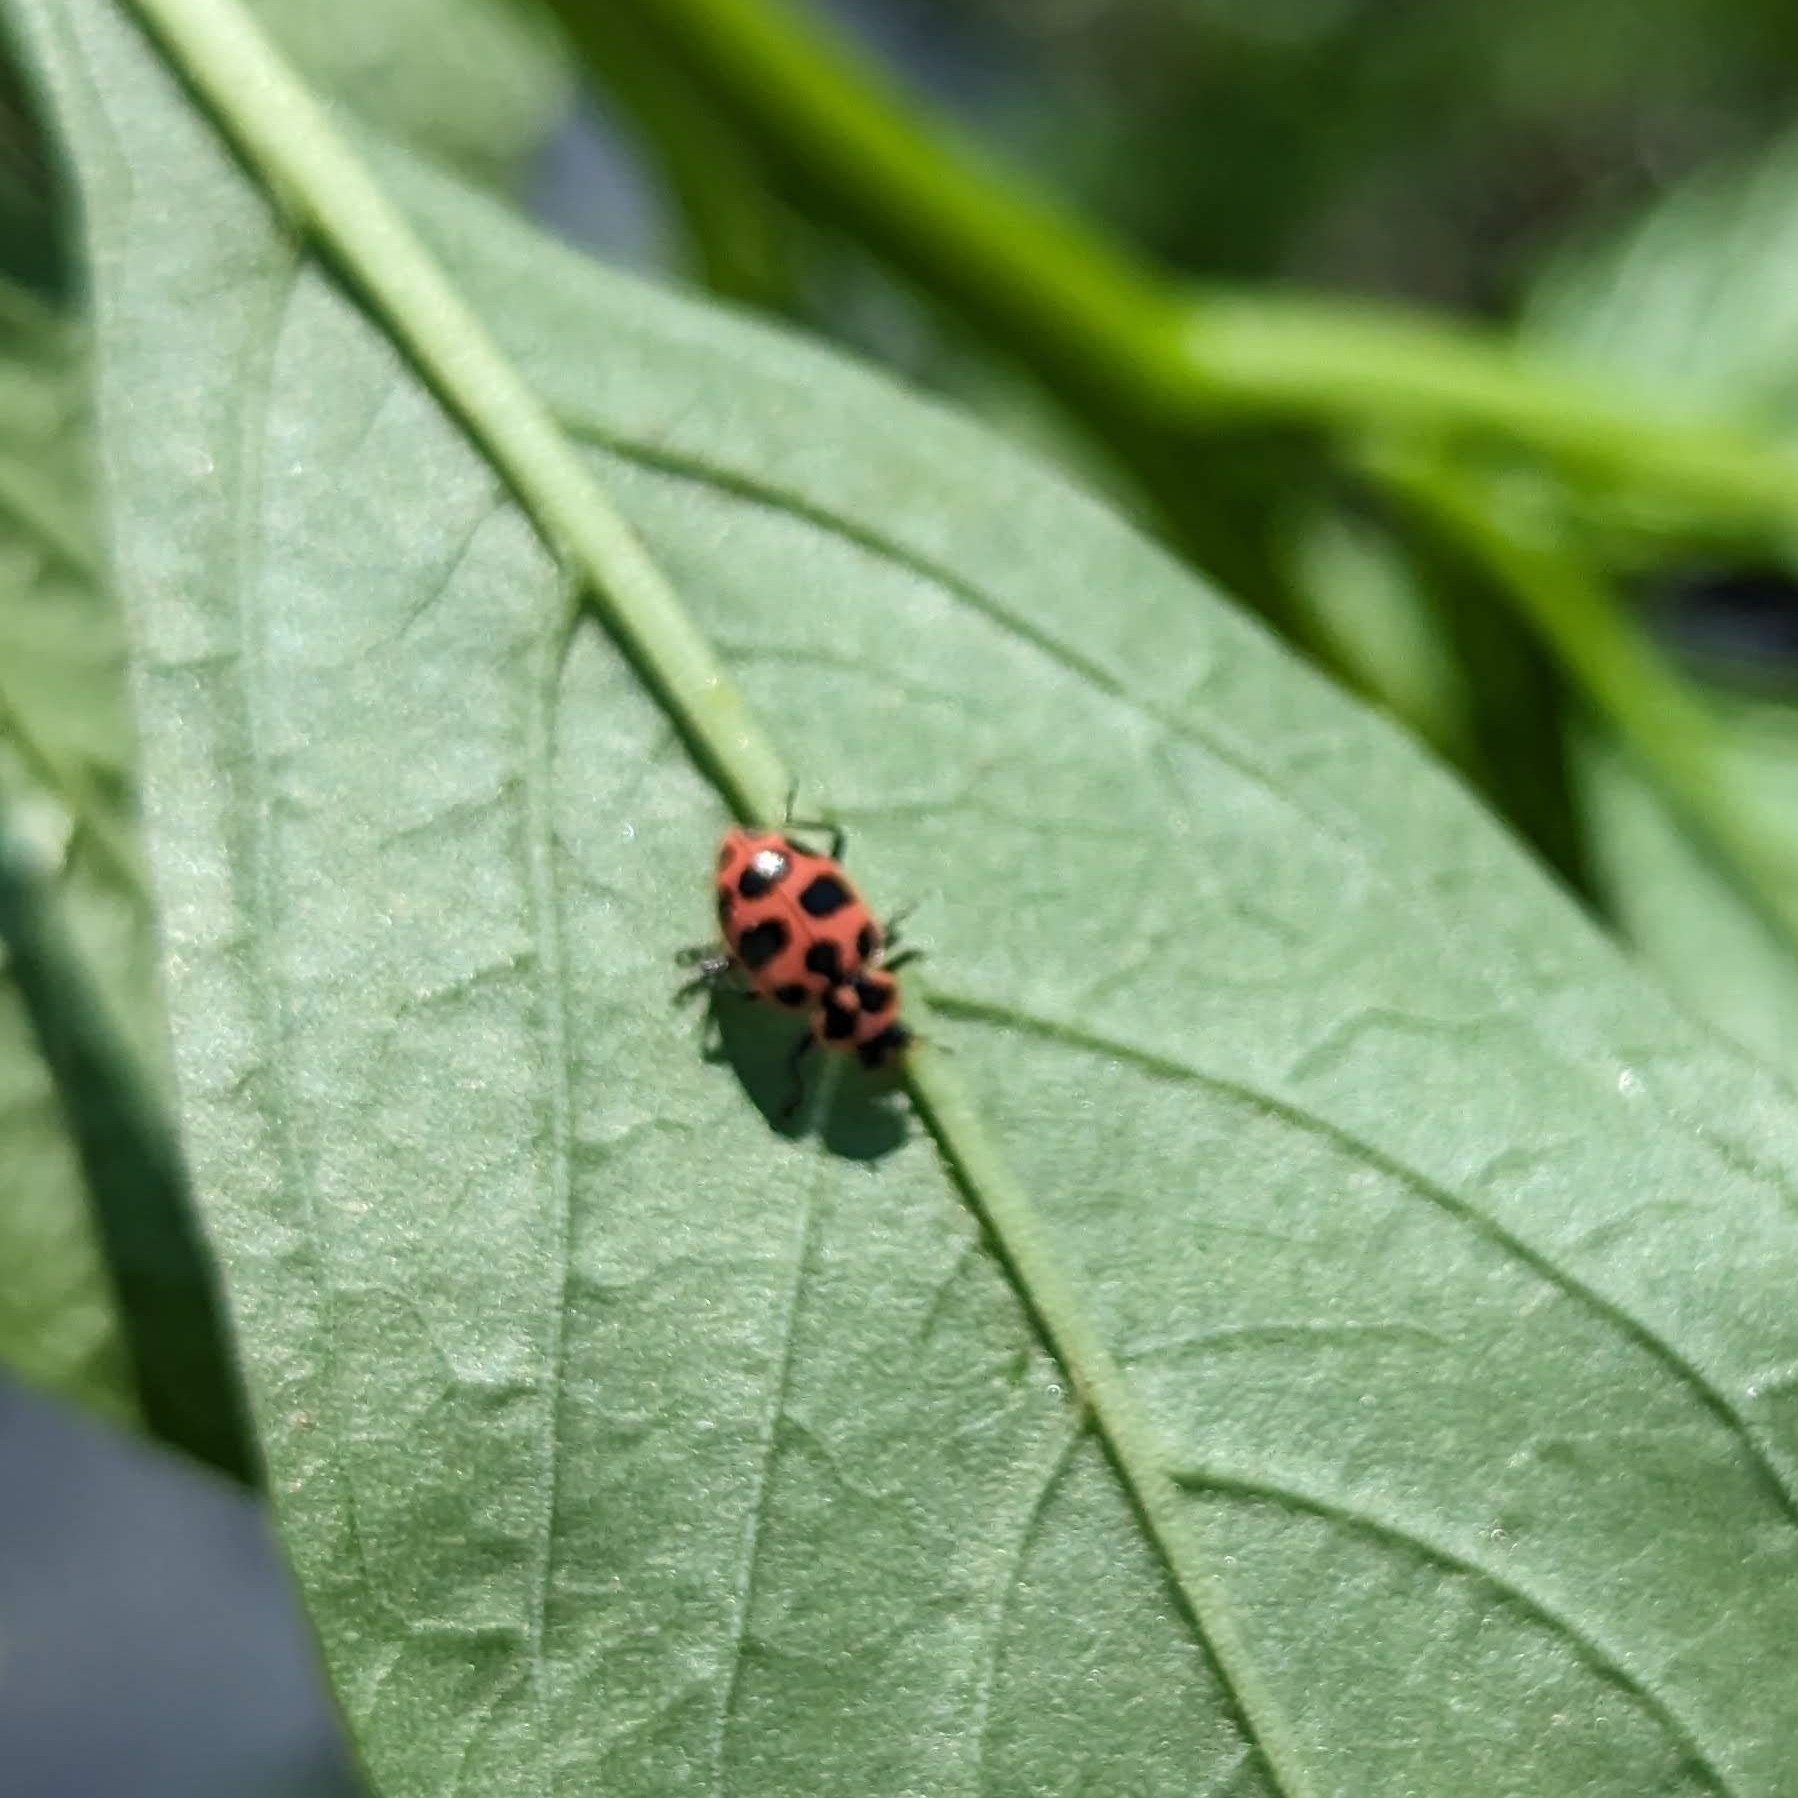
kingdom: Animalia
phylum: Arthropoda
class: Insecta
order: Coleoptera
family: Coccinellidae
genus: Coleomegilla
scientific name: Coleomegilla maculata
